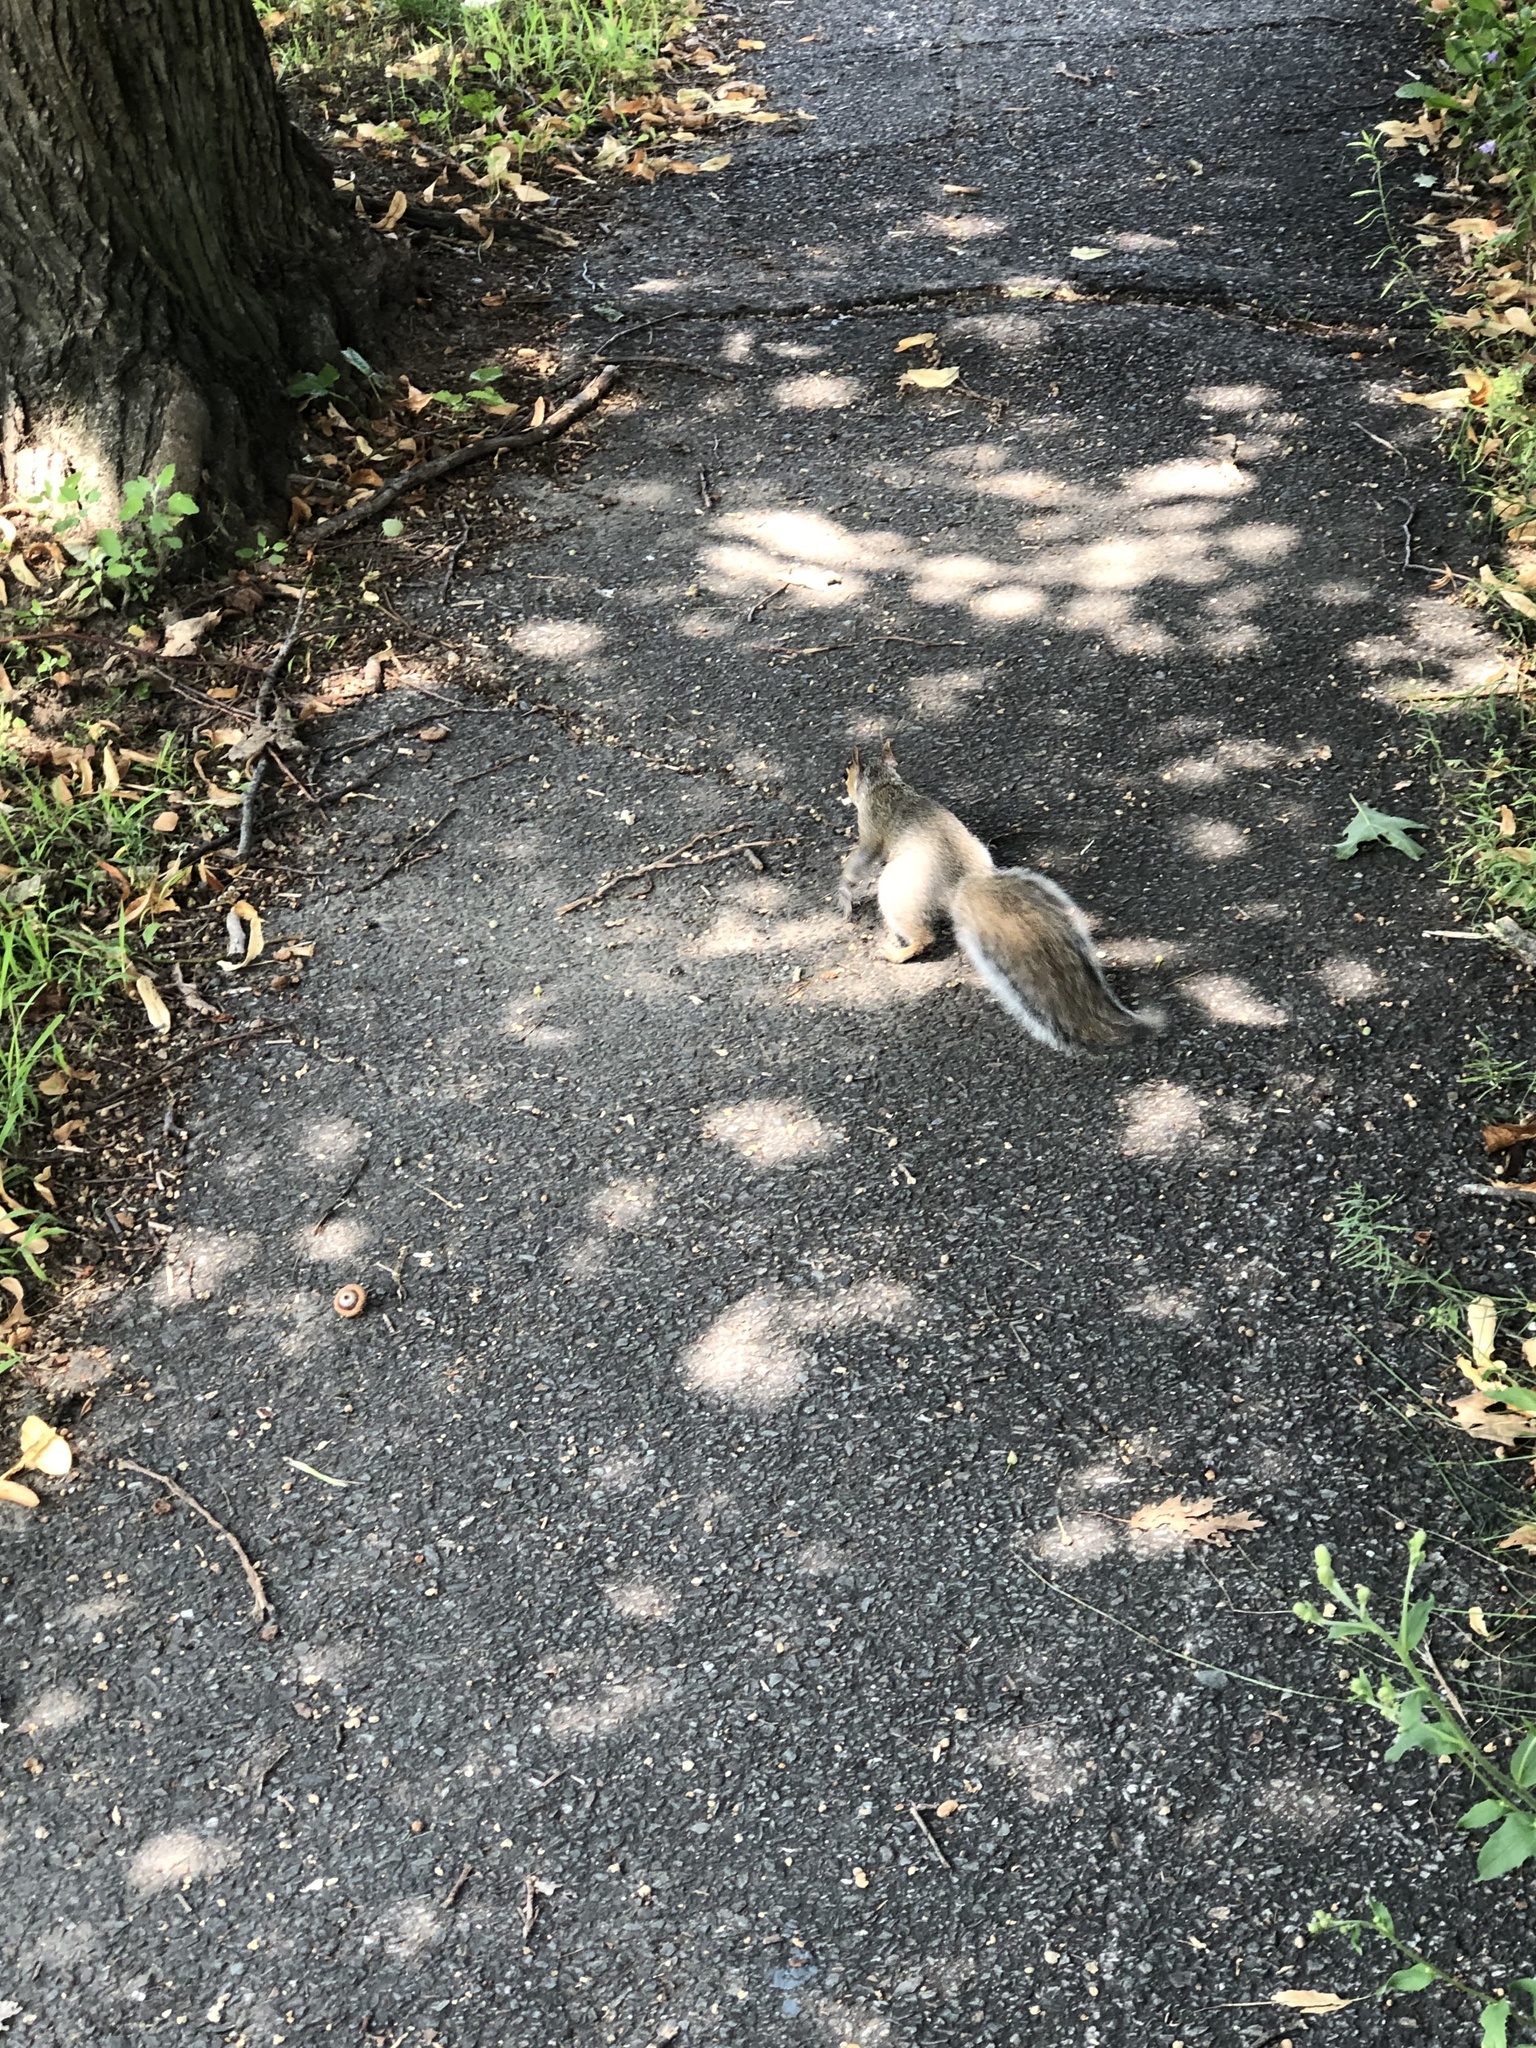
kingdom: Animalia
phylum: Chordata
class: Mammalia
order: Rodentia
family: Sciuridae
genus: Sciurus
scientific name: Sciurus carolinensis
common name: Eastern gray squirrel
